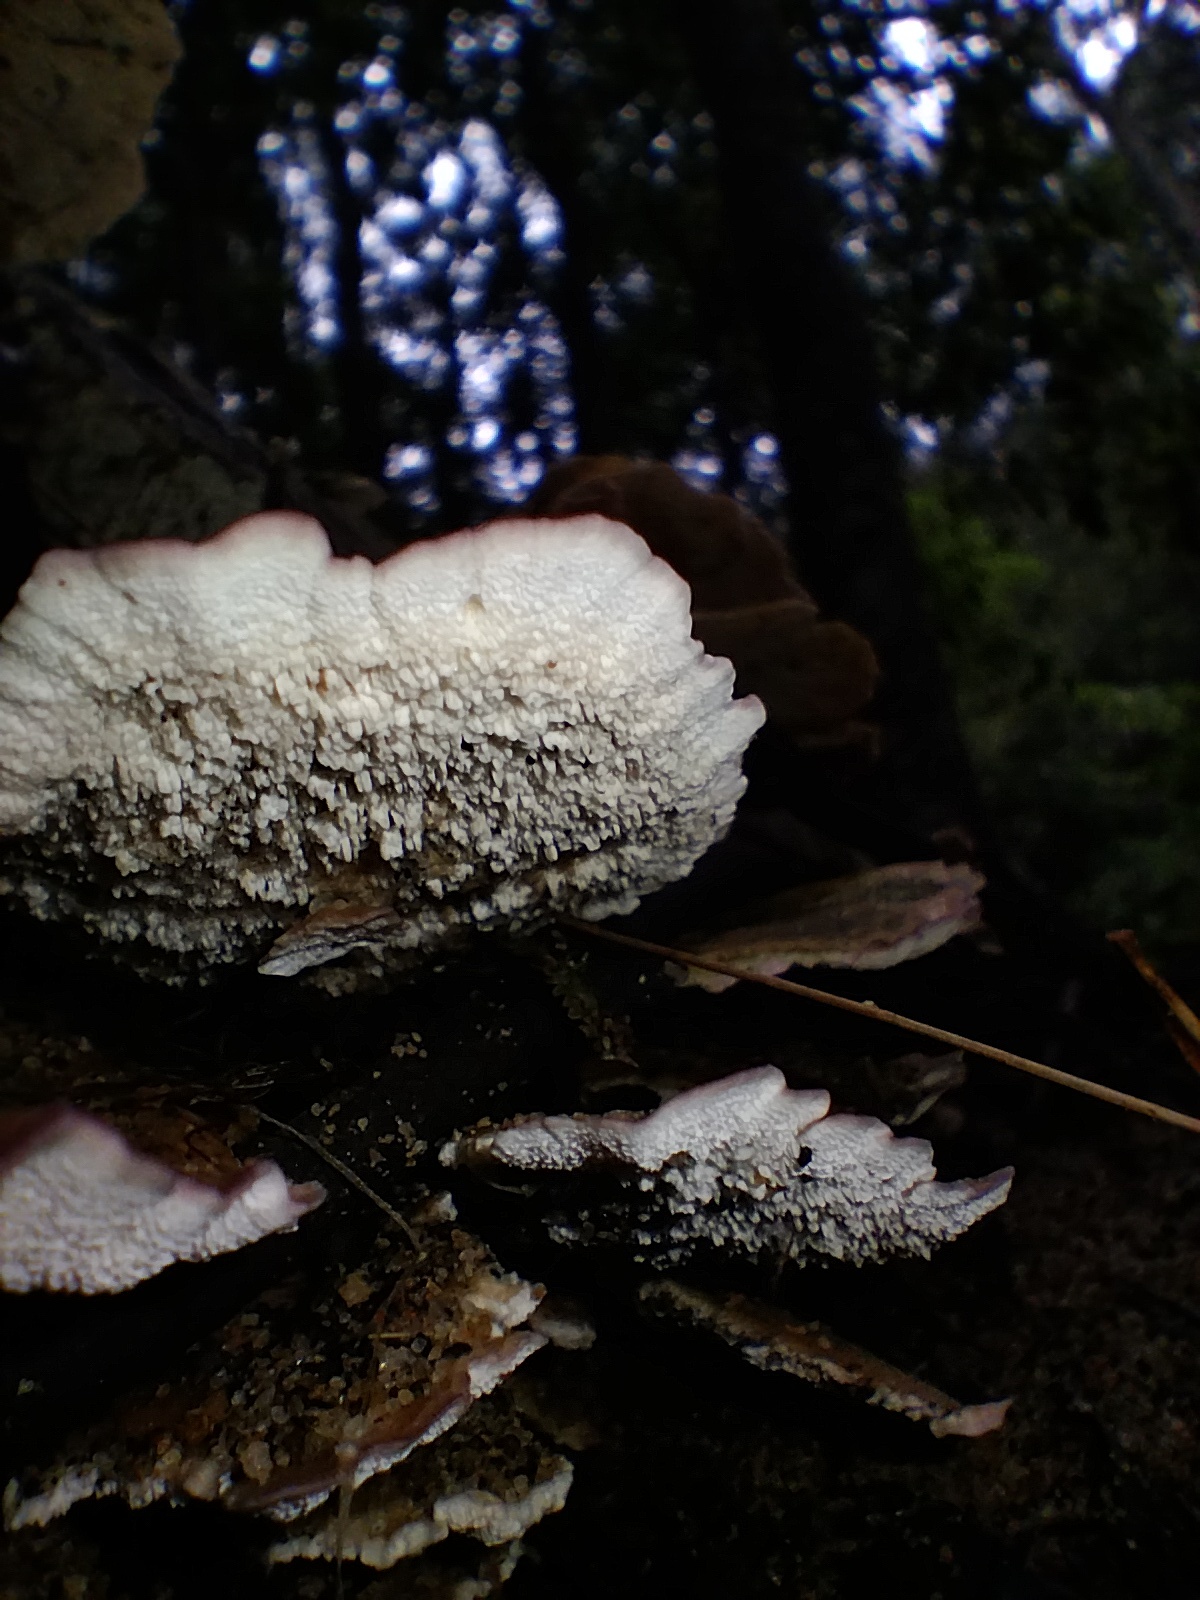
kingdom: Fungi
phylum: Basidiomycota
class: Agaricomycetes
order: Hymenochaetales
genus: Trichaptum
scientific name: Trichaptum biforme
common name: Violet-toothed polypore
